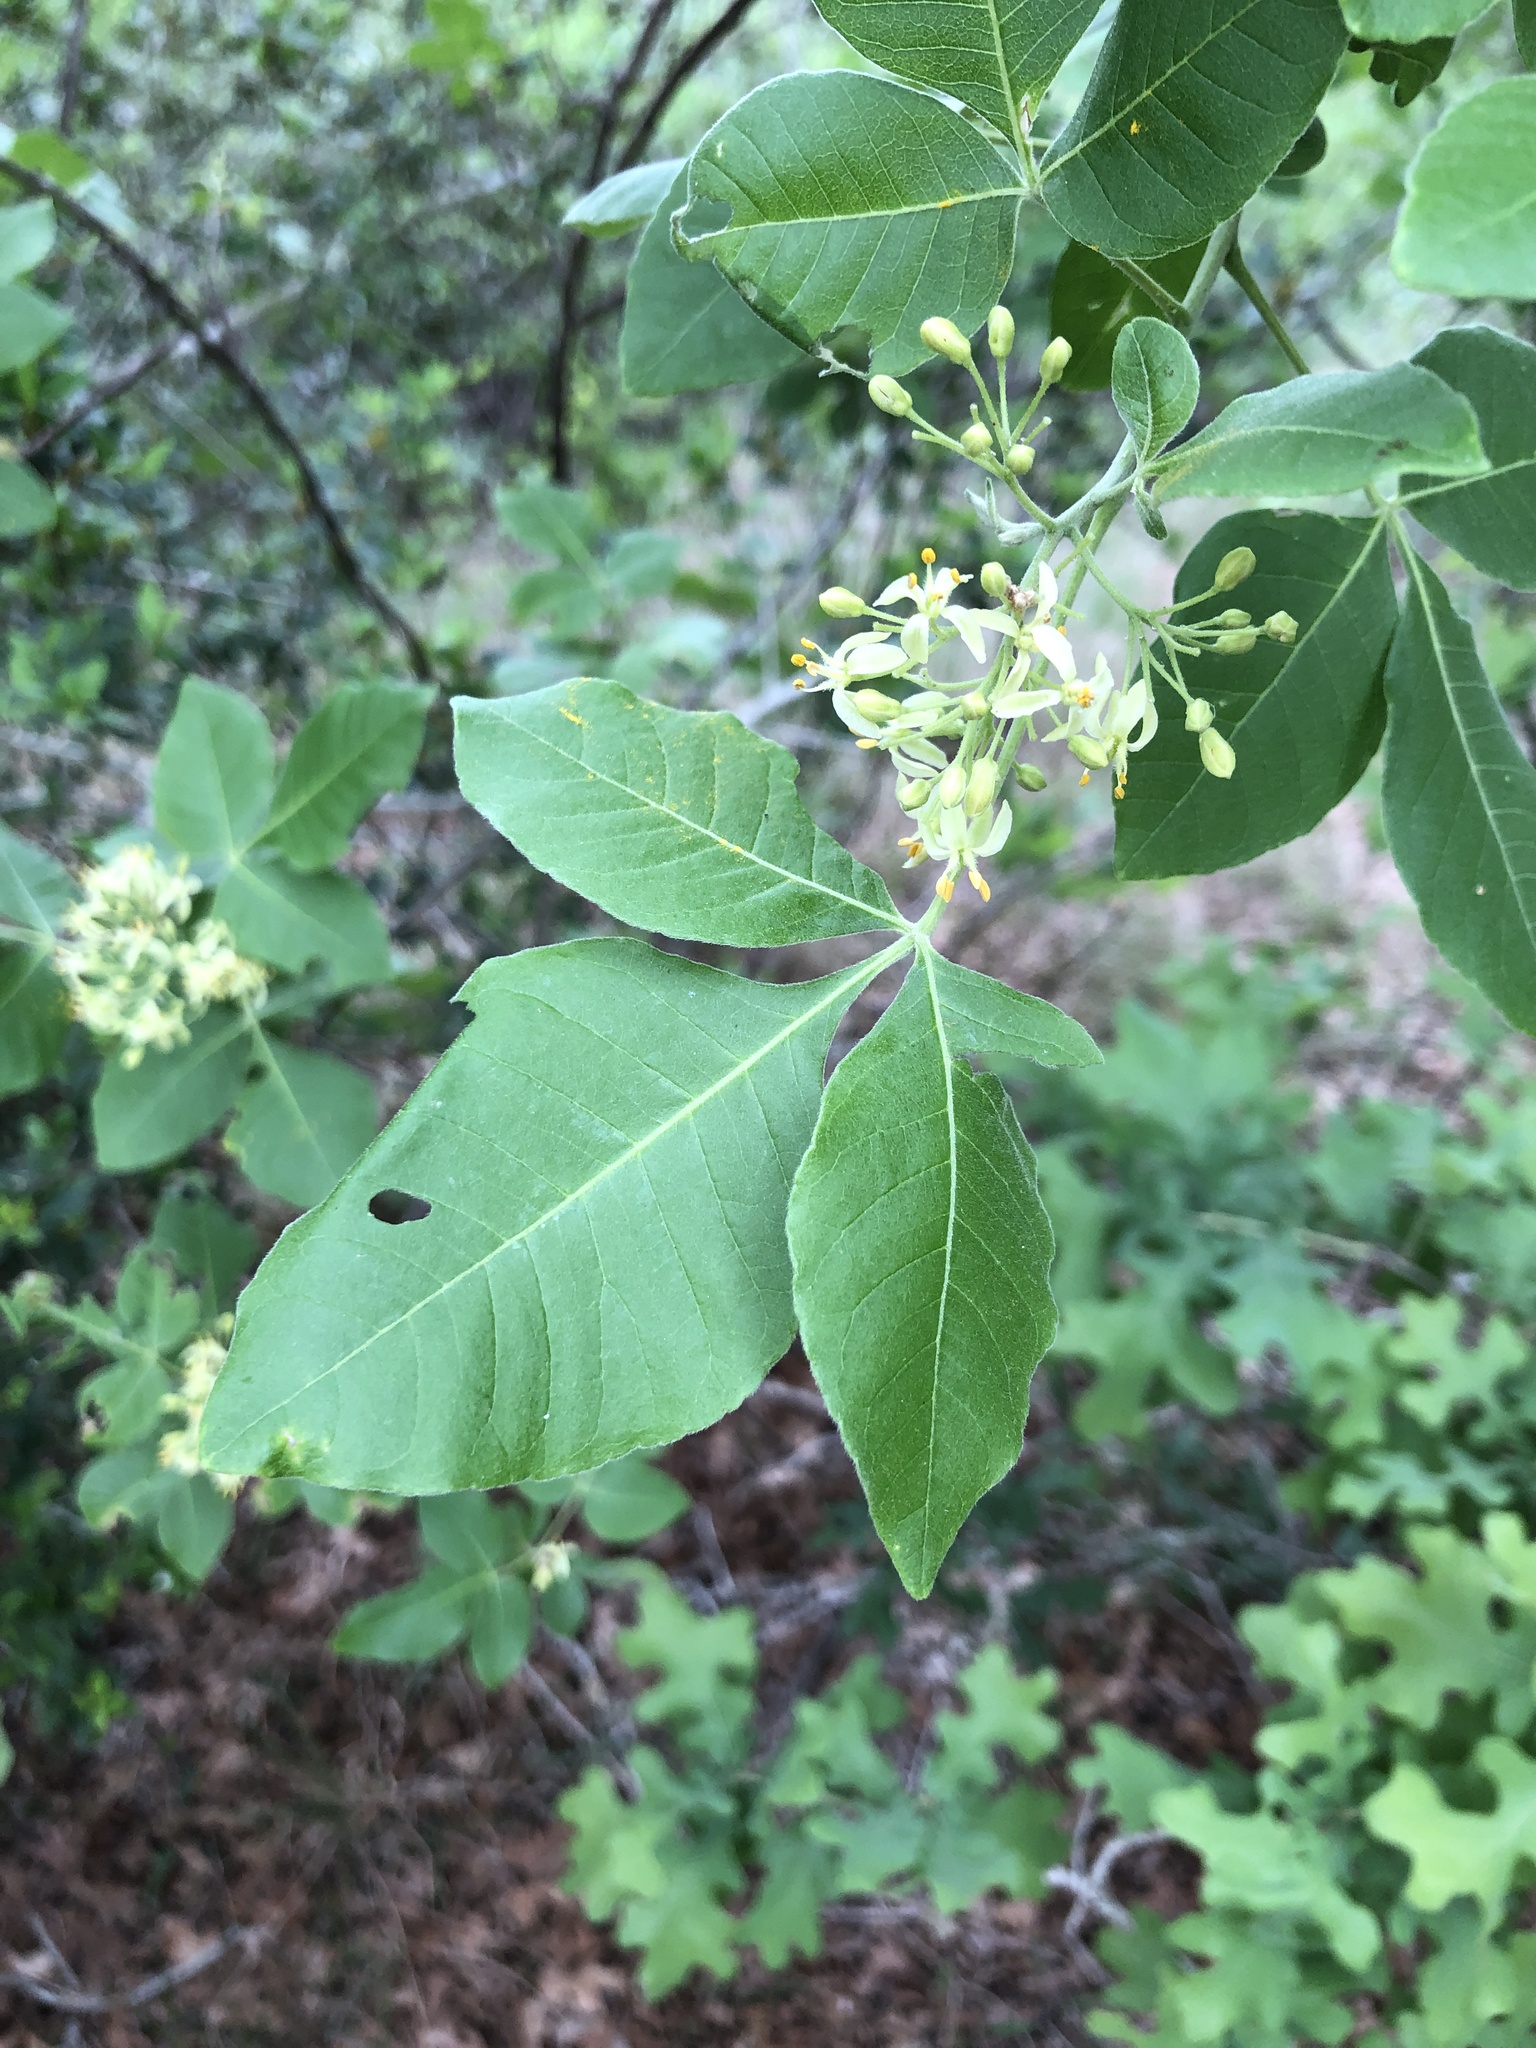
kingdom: Plantae
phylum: Tracheophyta
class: Magnoliopsida
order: Sapindales
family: Rutaceae
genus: Ptelea
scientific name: Ptelea trifoliata
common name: Common hop-tree
